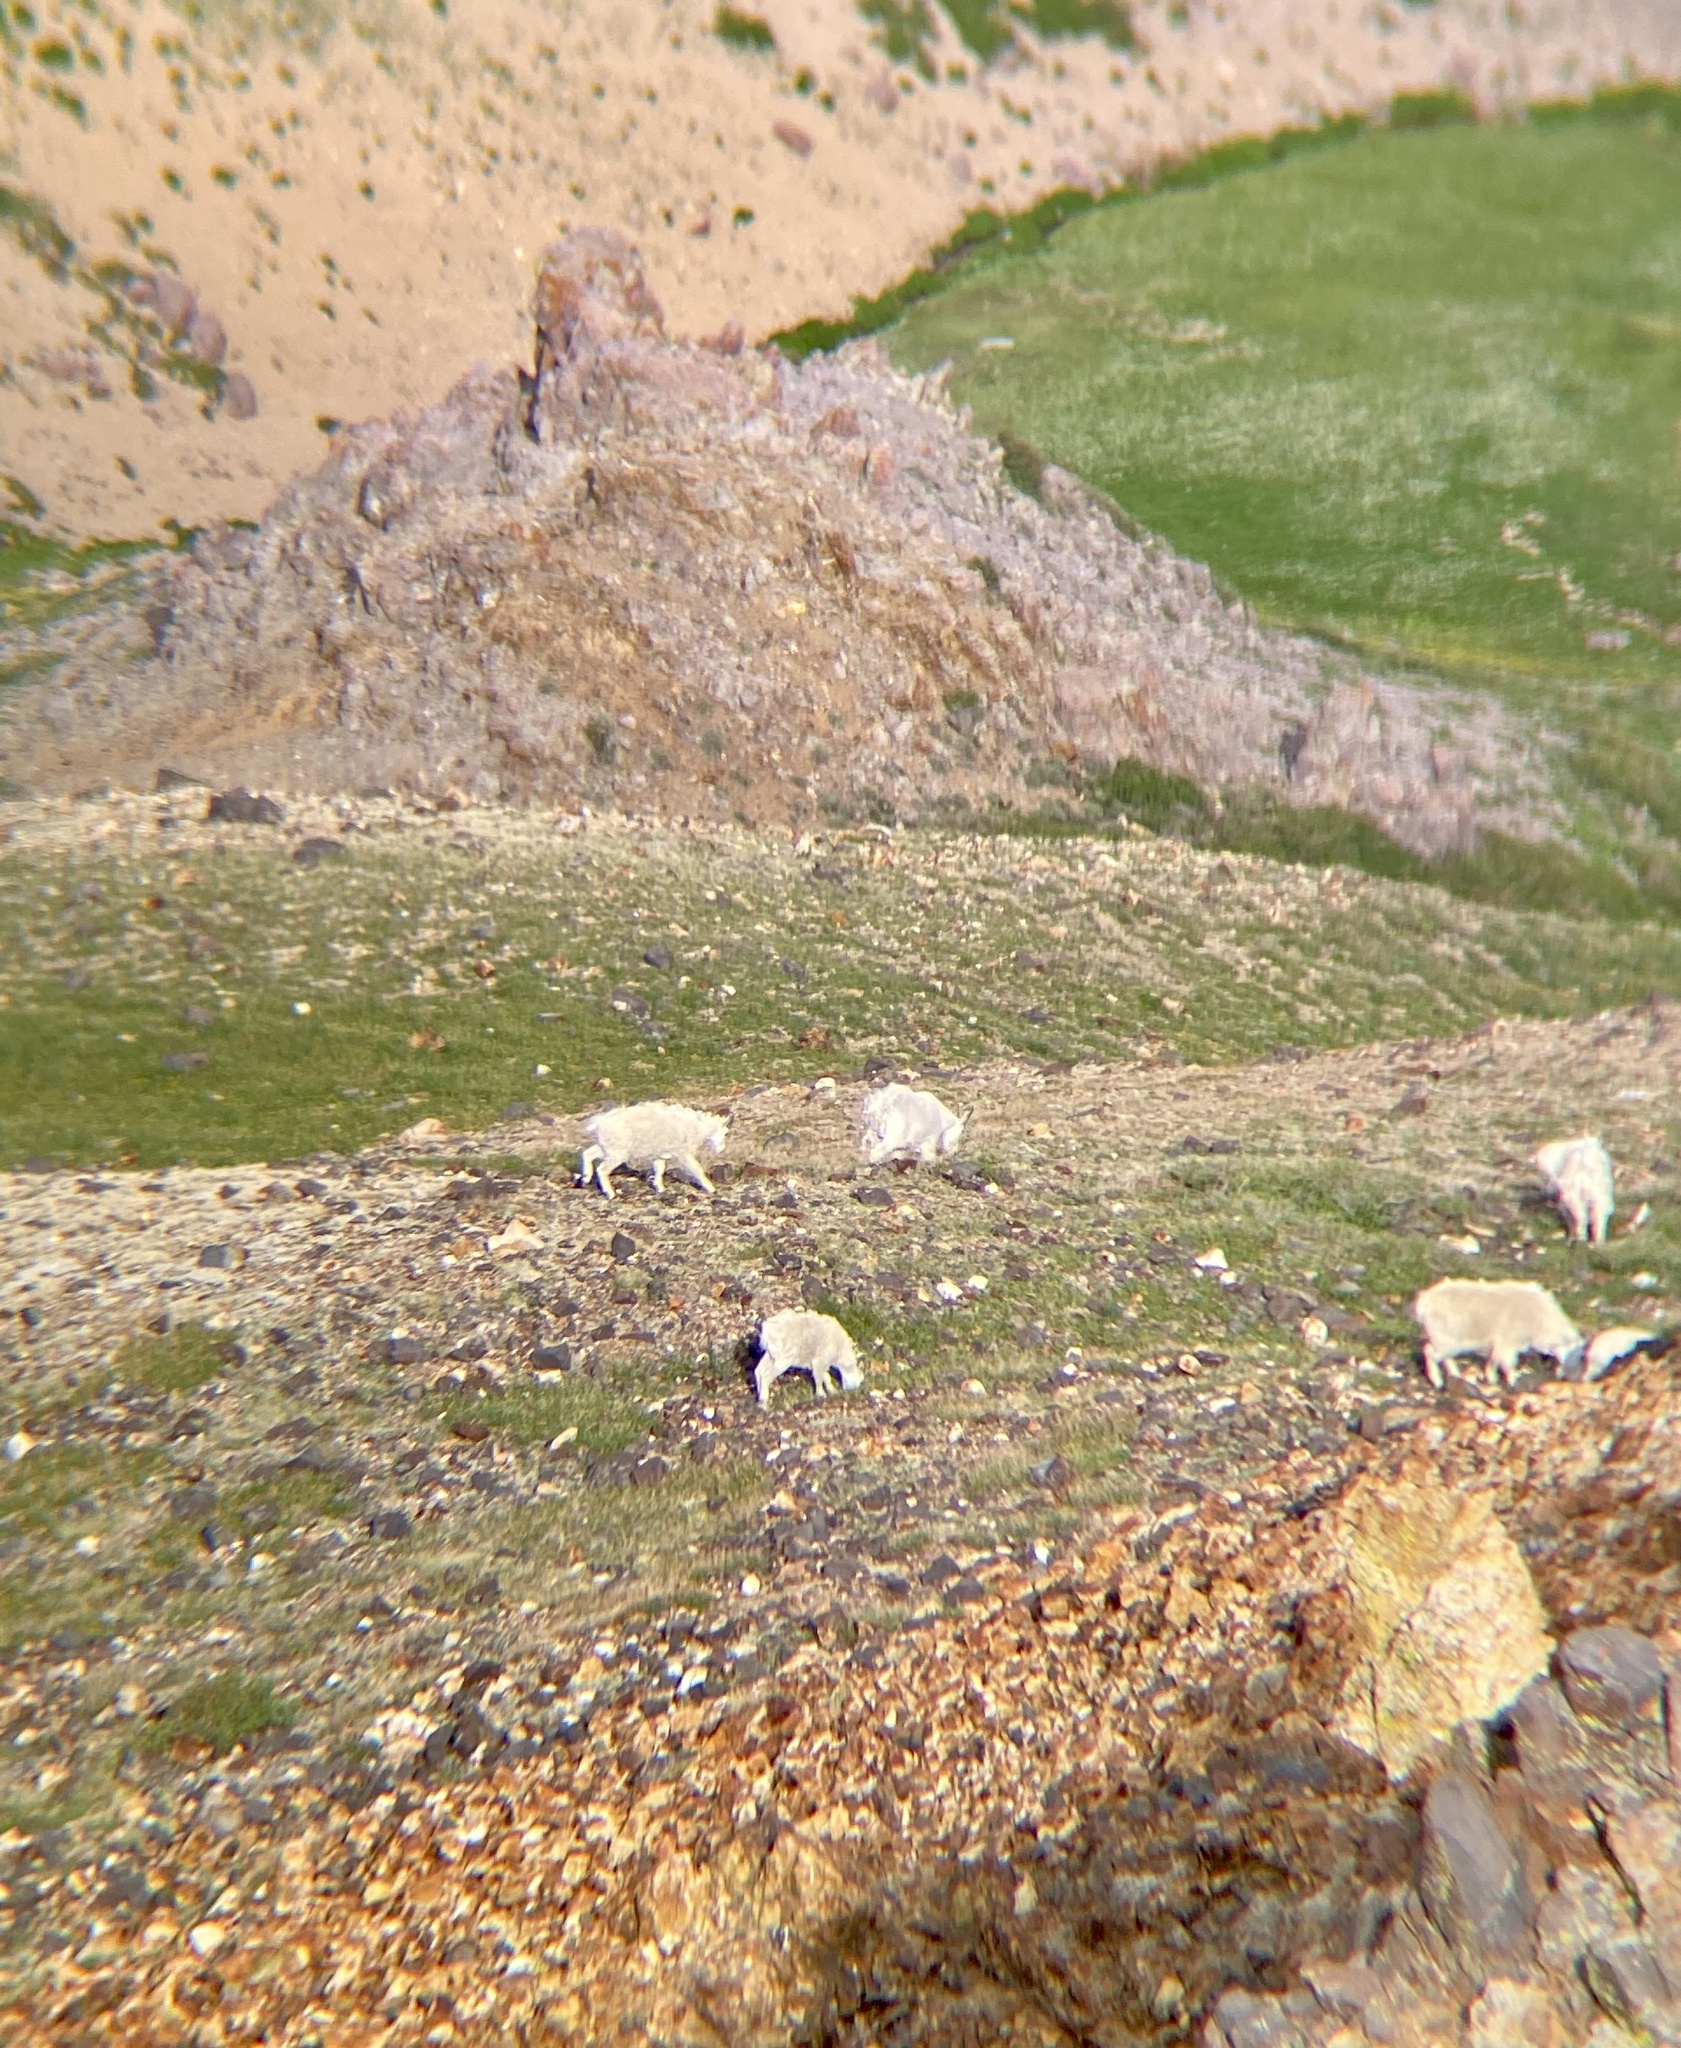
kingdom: Animalia
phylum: Chordata
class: Mammalia
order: Artiodactyla
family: Bovidae
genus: Oreamnos
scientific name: Oreamnos americanus
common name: Mountain goat
